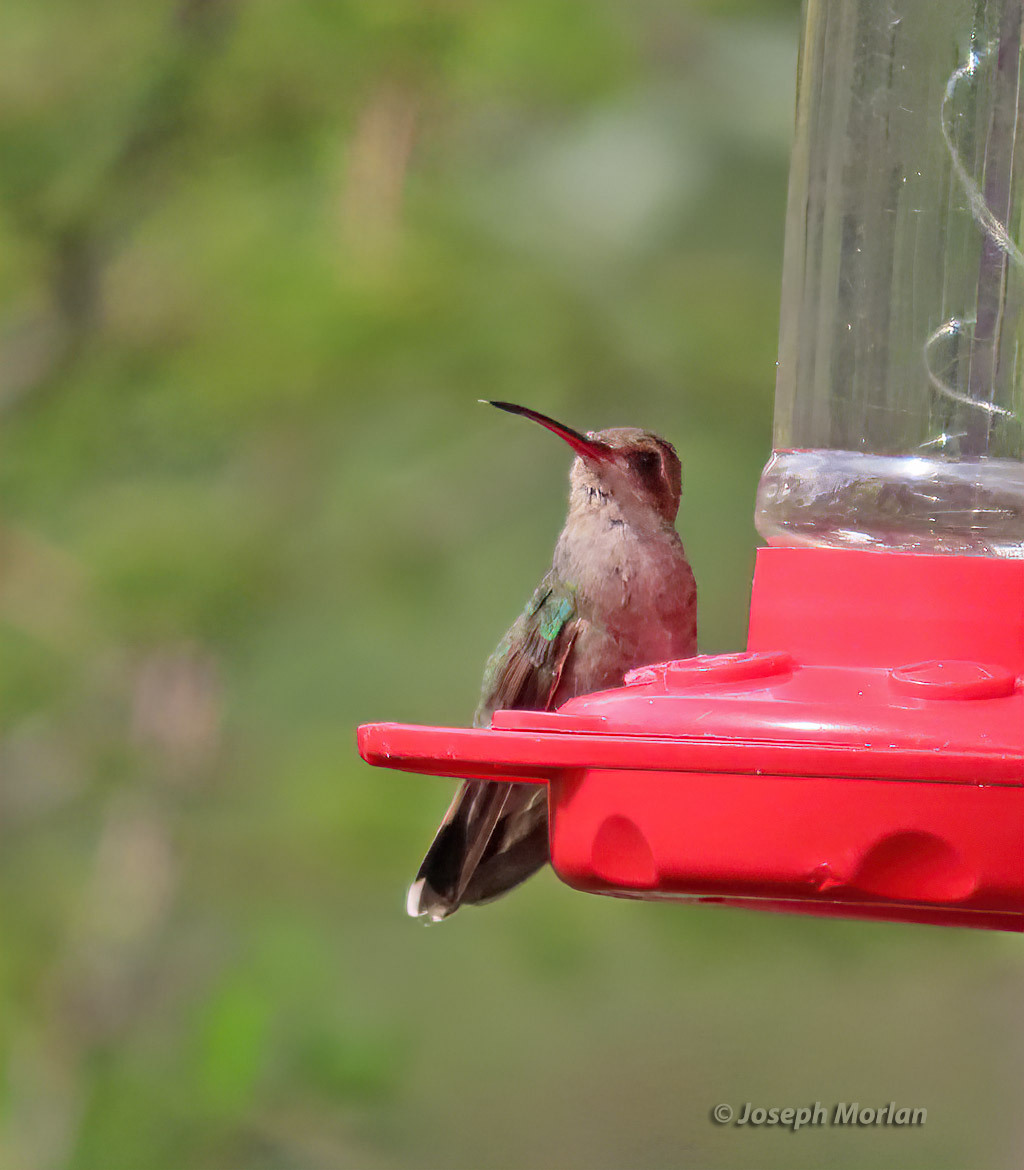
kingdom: Animalia
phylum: Chordata
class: Aves
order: Apodiformes
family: Trochilidae
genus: Cynanthus
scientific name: Cynanthus latirostris
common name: Broad-billed hummingbird
